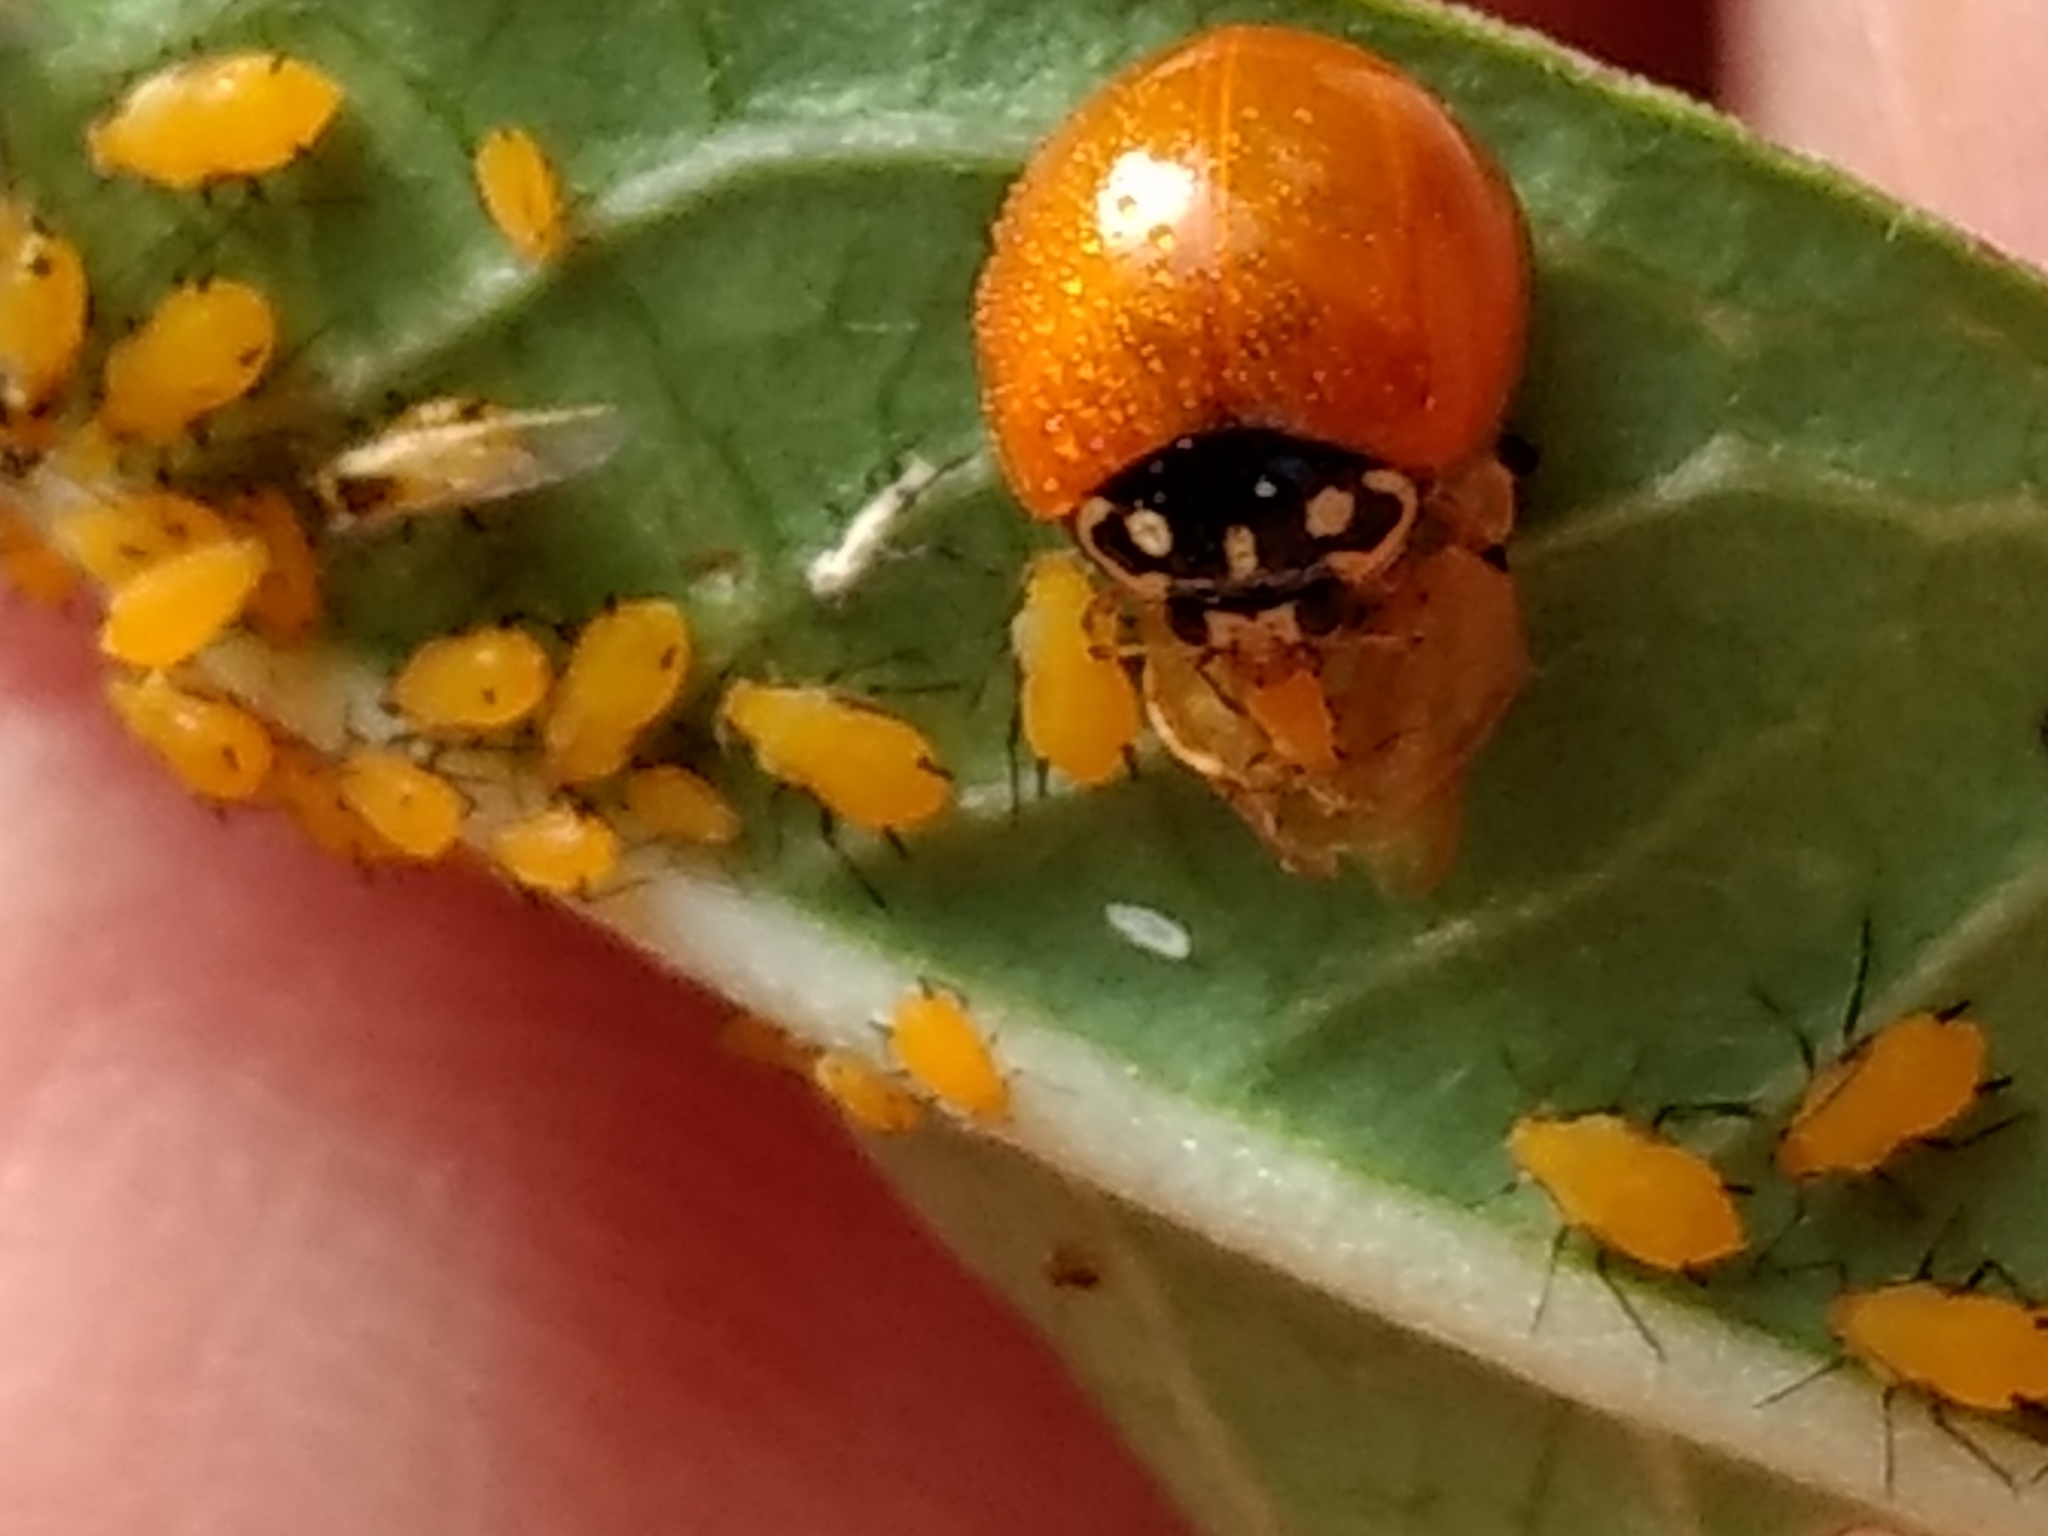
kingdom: Animalia
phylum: Arthropoda
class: Insecta
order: Coleoptera
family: Coccinellidae
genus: Cycloneda
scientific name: Cycloneda sanguinea
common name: Ladybird beetle
